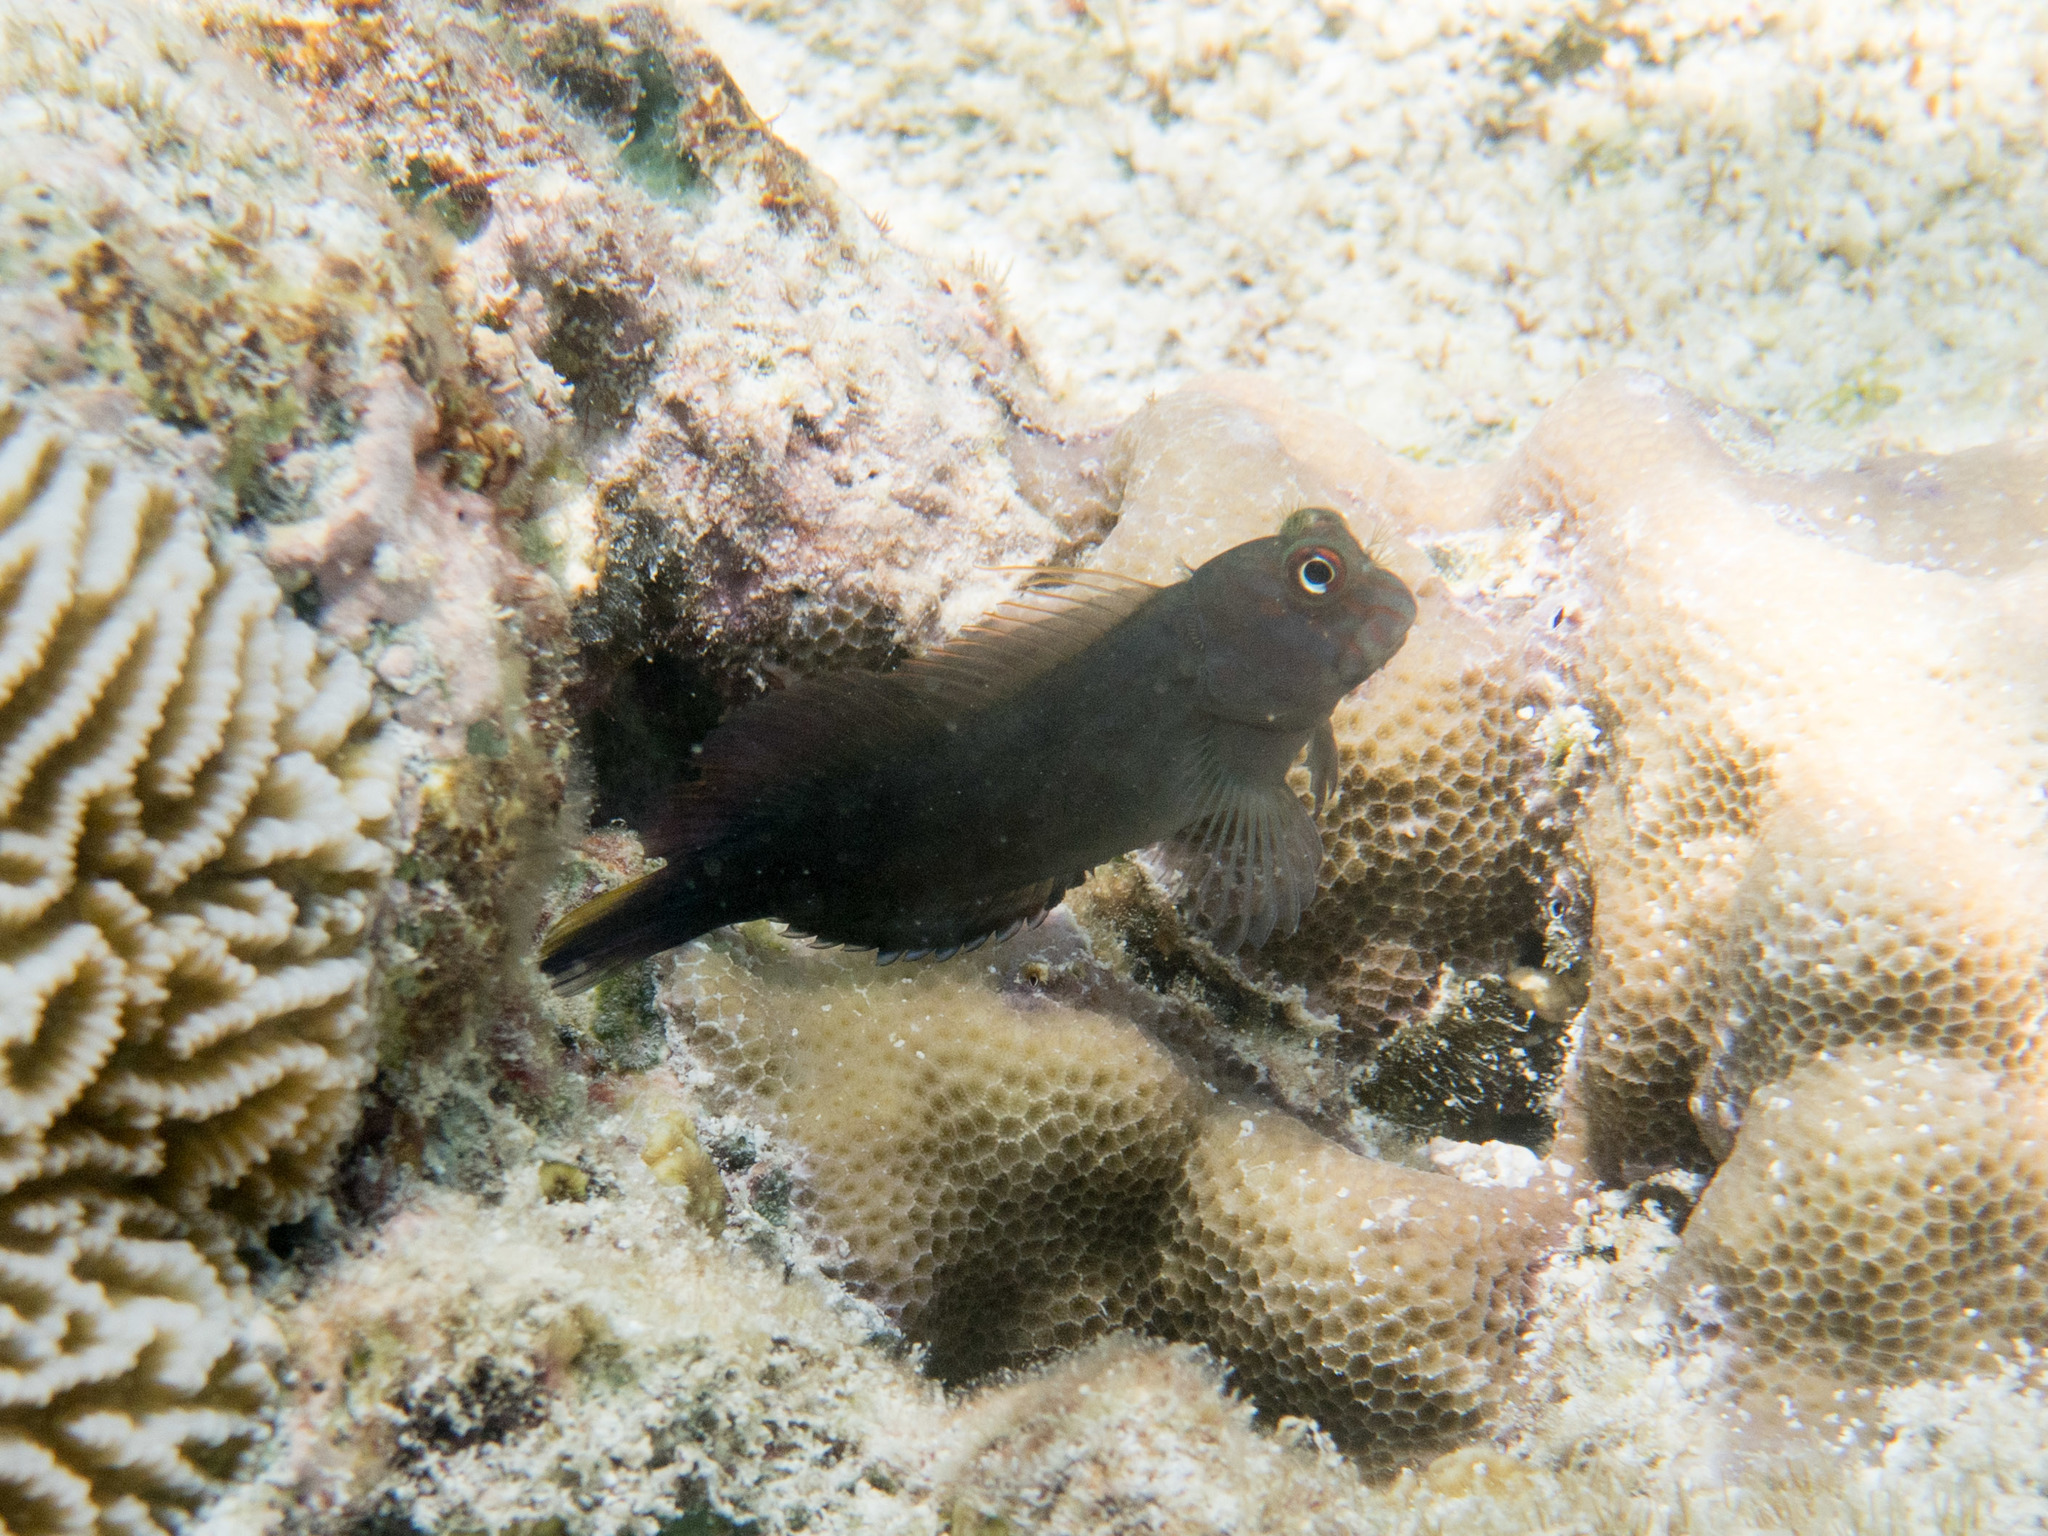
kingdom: Animalia
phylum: Chordata
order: Perciformes
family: Blenniidae
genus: Cirripectes
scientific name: Cirripectes castaneus
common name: Chestnut blenny
